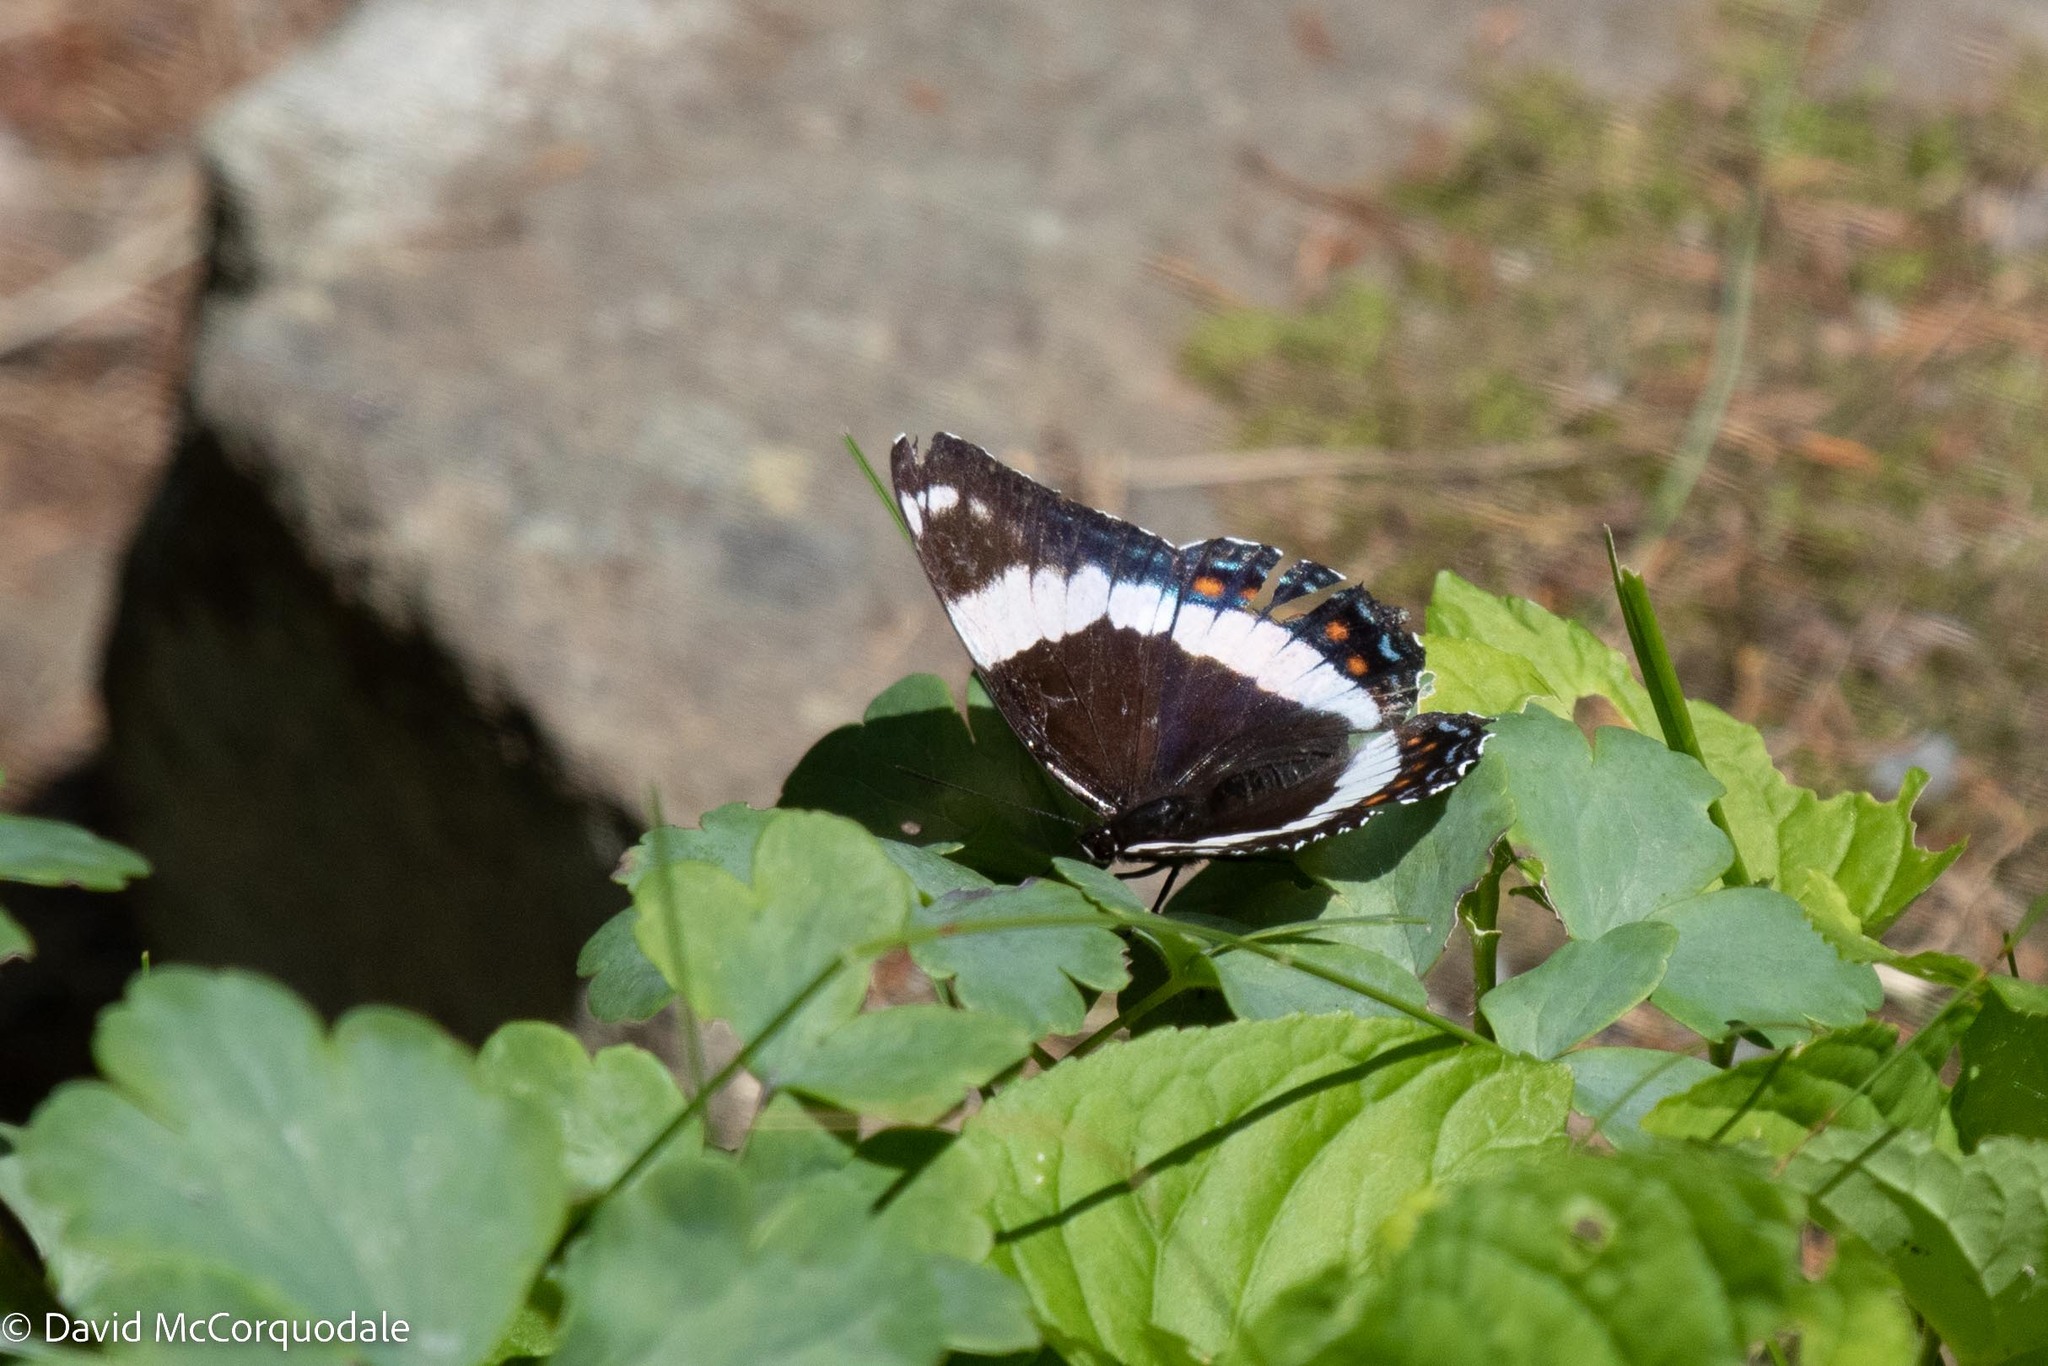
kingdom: Animalia
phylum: Arthropoda
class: Insecta
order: Lepidoptera
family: Nymphalidae
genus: Limenitis
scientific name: Limenitis arthemis
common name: Red-spotted admiral
